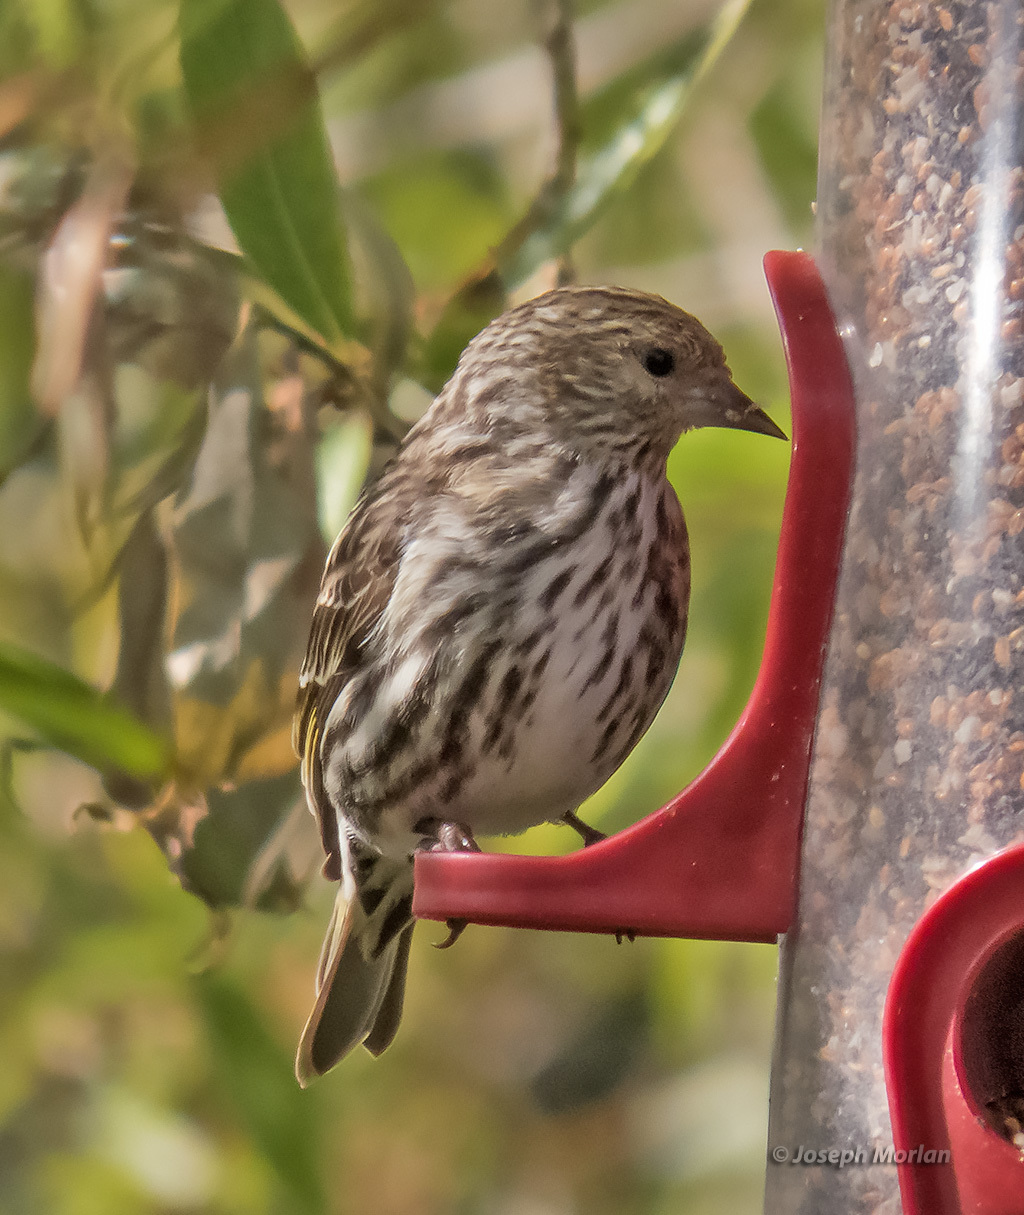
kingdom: Animalia
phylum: Chordata
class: Aves
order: Passeriformes
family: Fringillidae
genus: Spinus
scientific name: Spinus pinus
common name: Pine siskin
